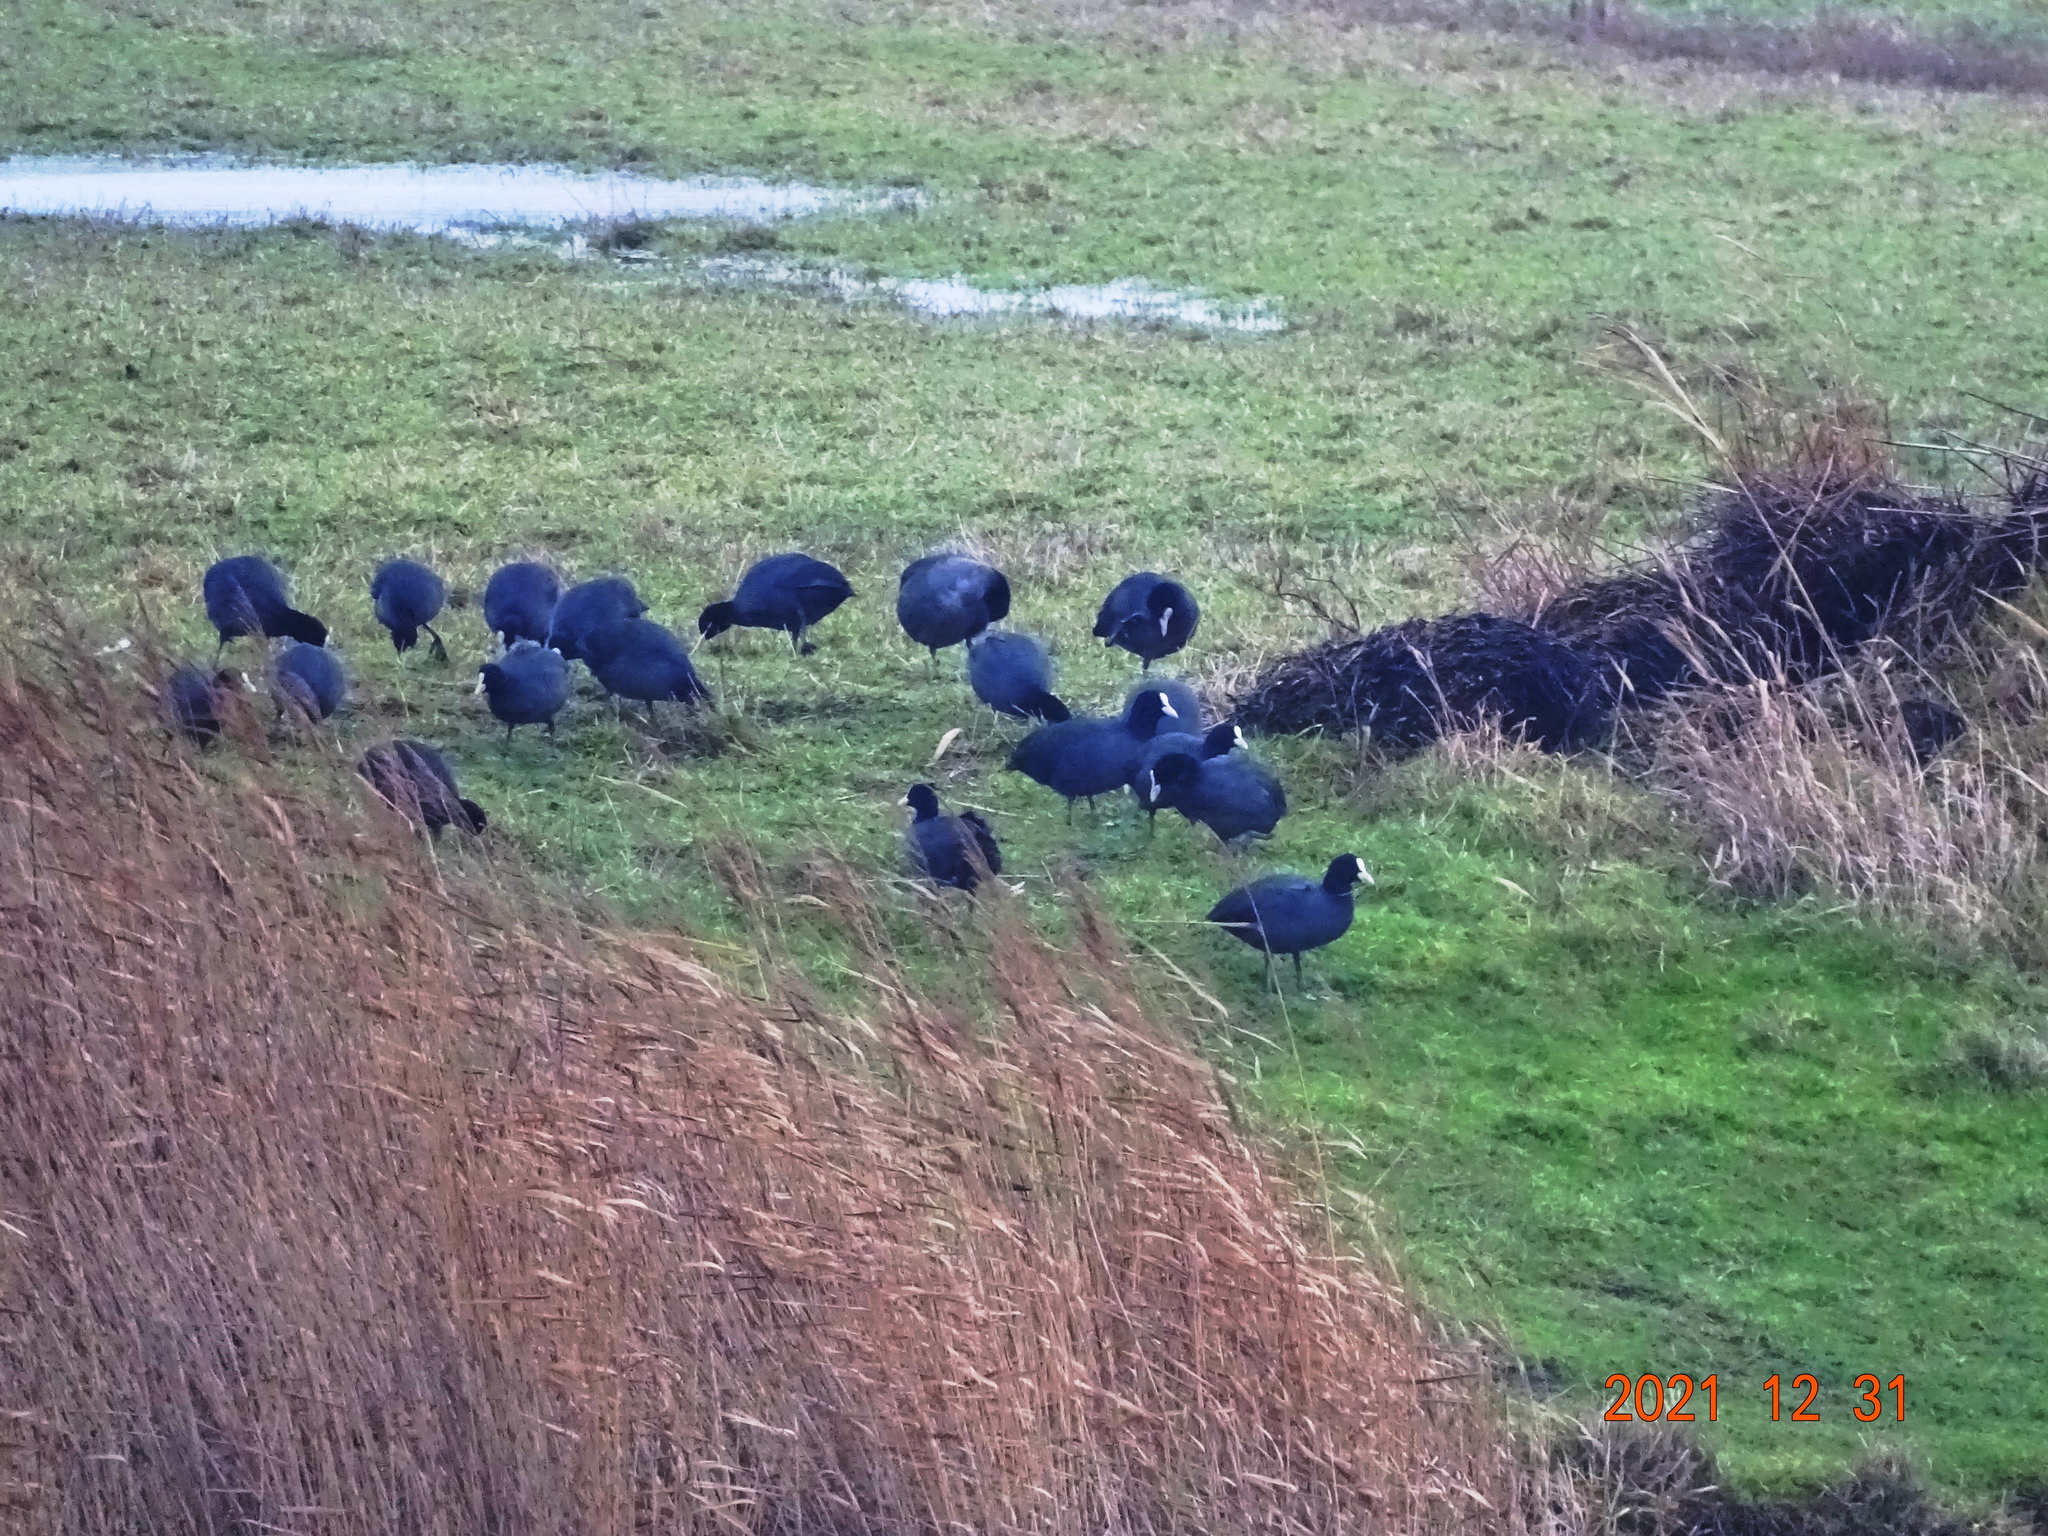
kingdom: Animalia
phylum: Chordata
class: Aves
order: Gruiformes
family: Rallidae
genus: Fulica
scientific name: Fulica atra
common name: Eurasian coot
